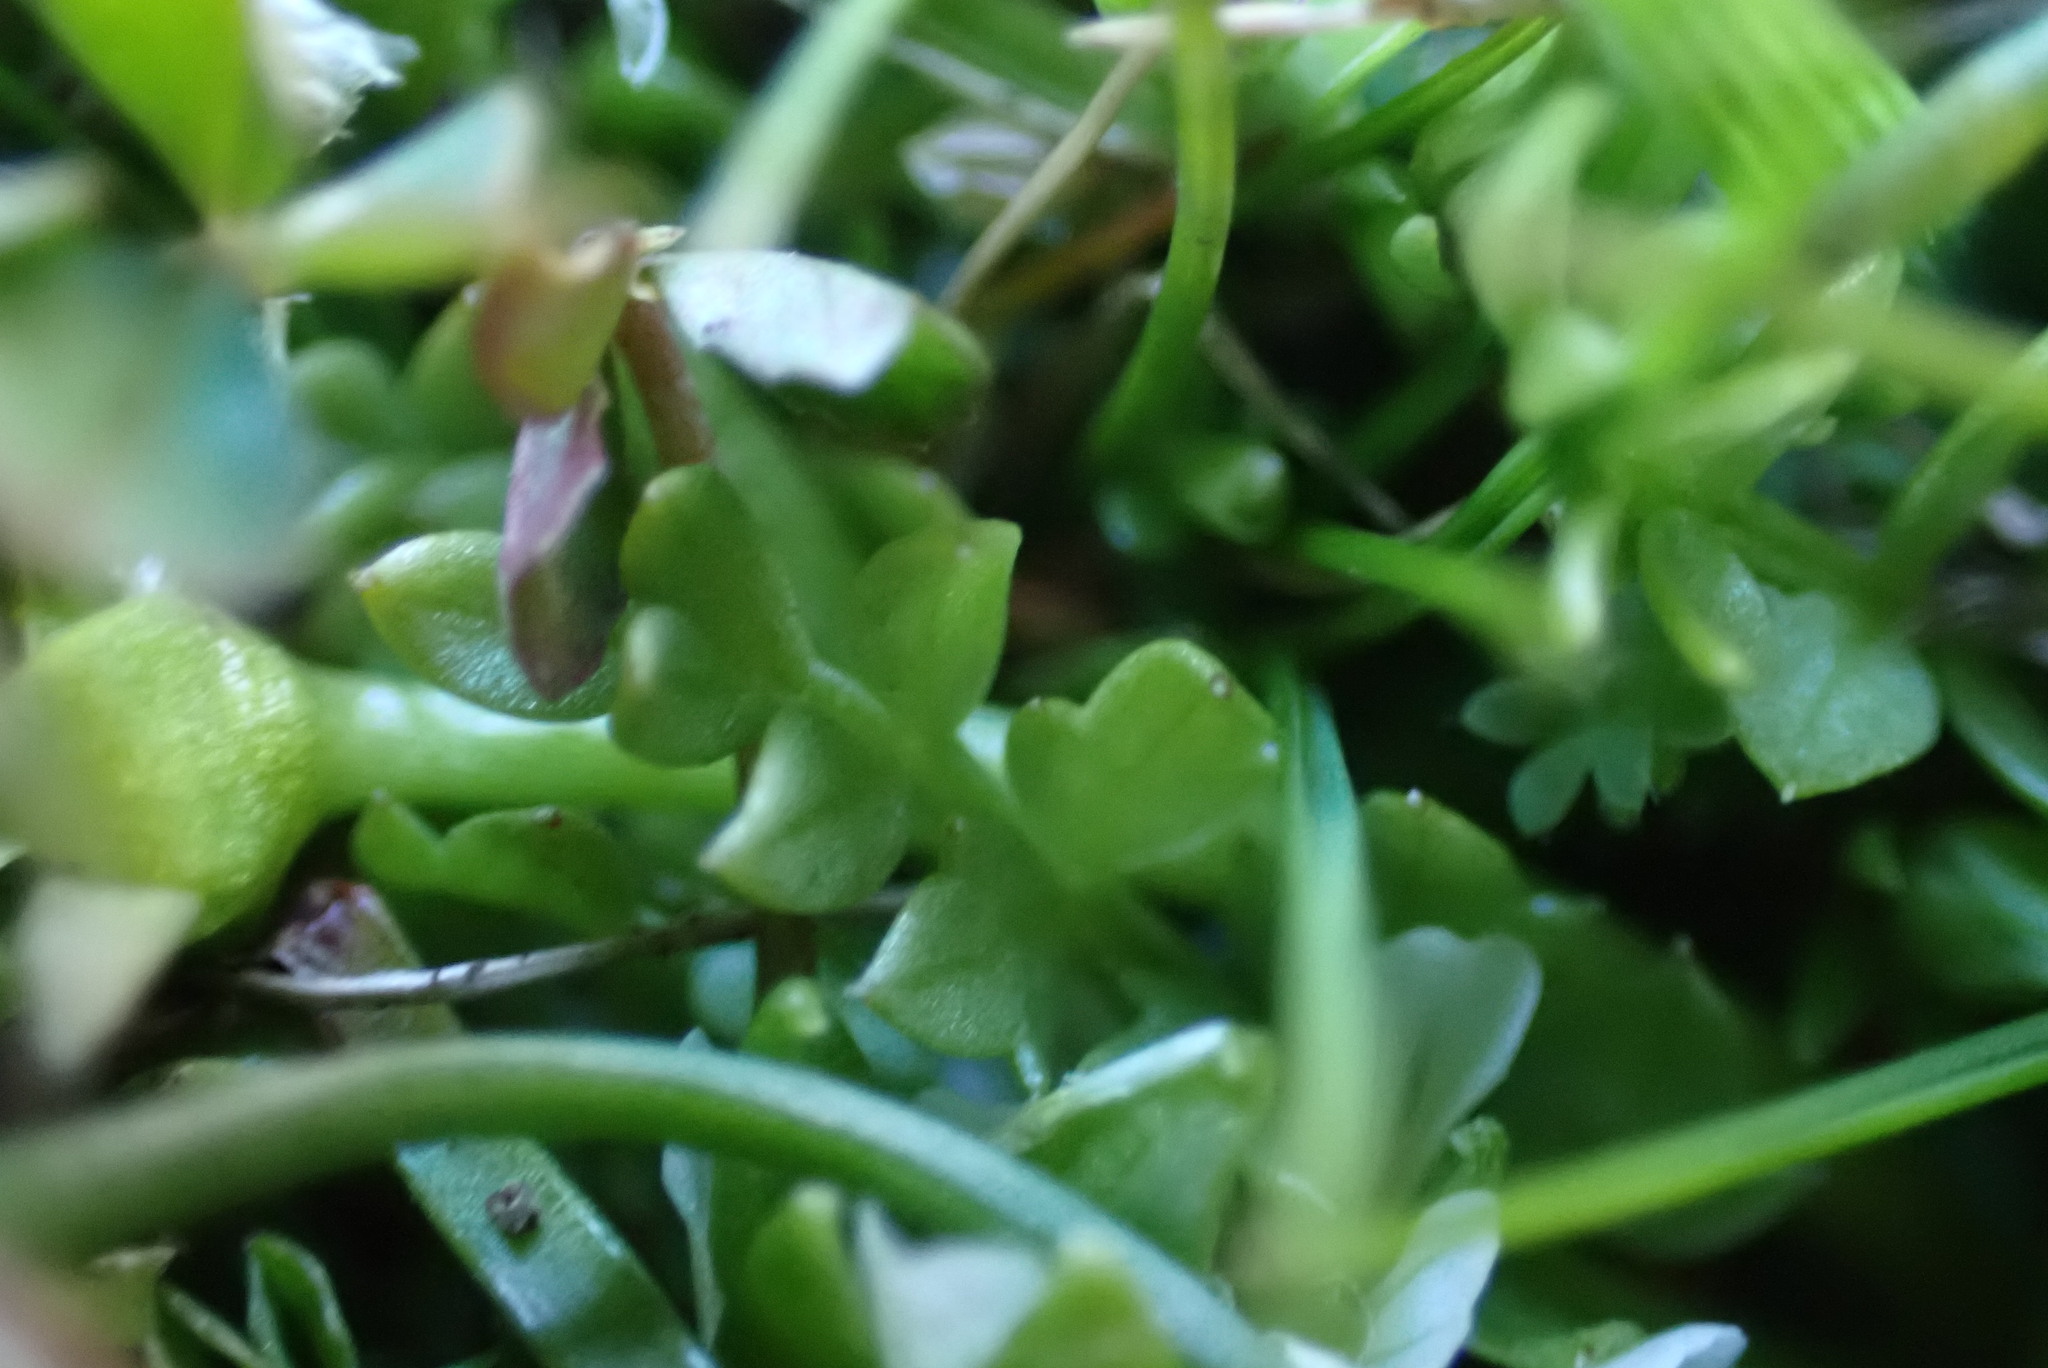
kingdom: Plantae
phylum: Tracheophyta
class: Magnoliopsida
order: Brassicales
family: Limnanthaceae
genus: Limnanthes
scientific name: Limnanthes macounii
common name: Macoun's meadowfoam
